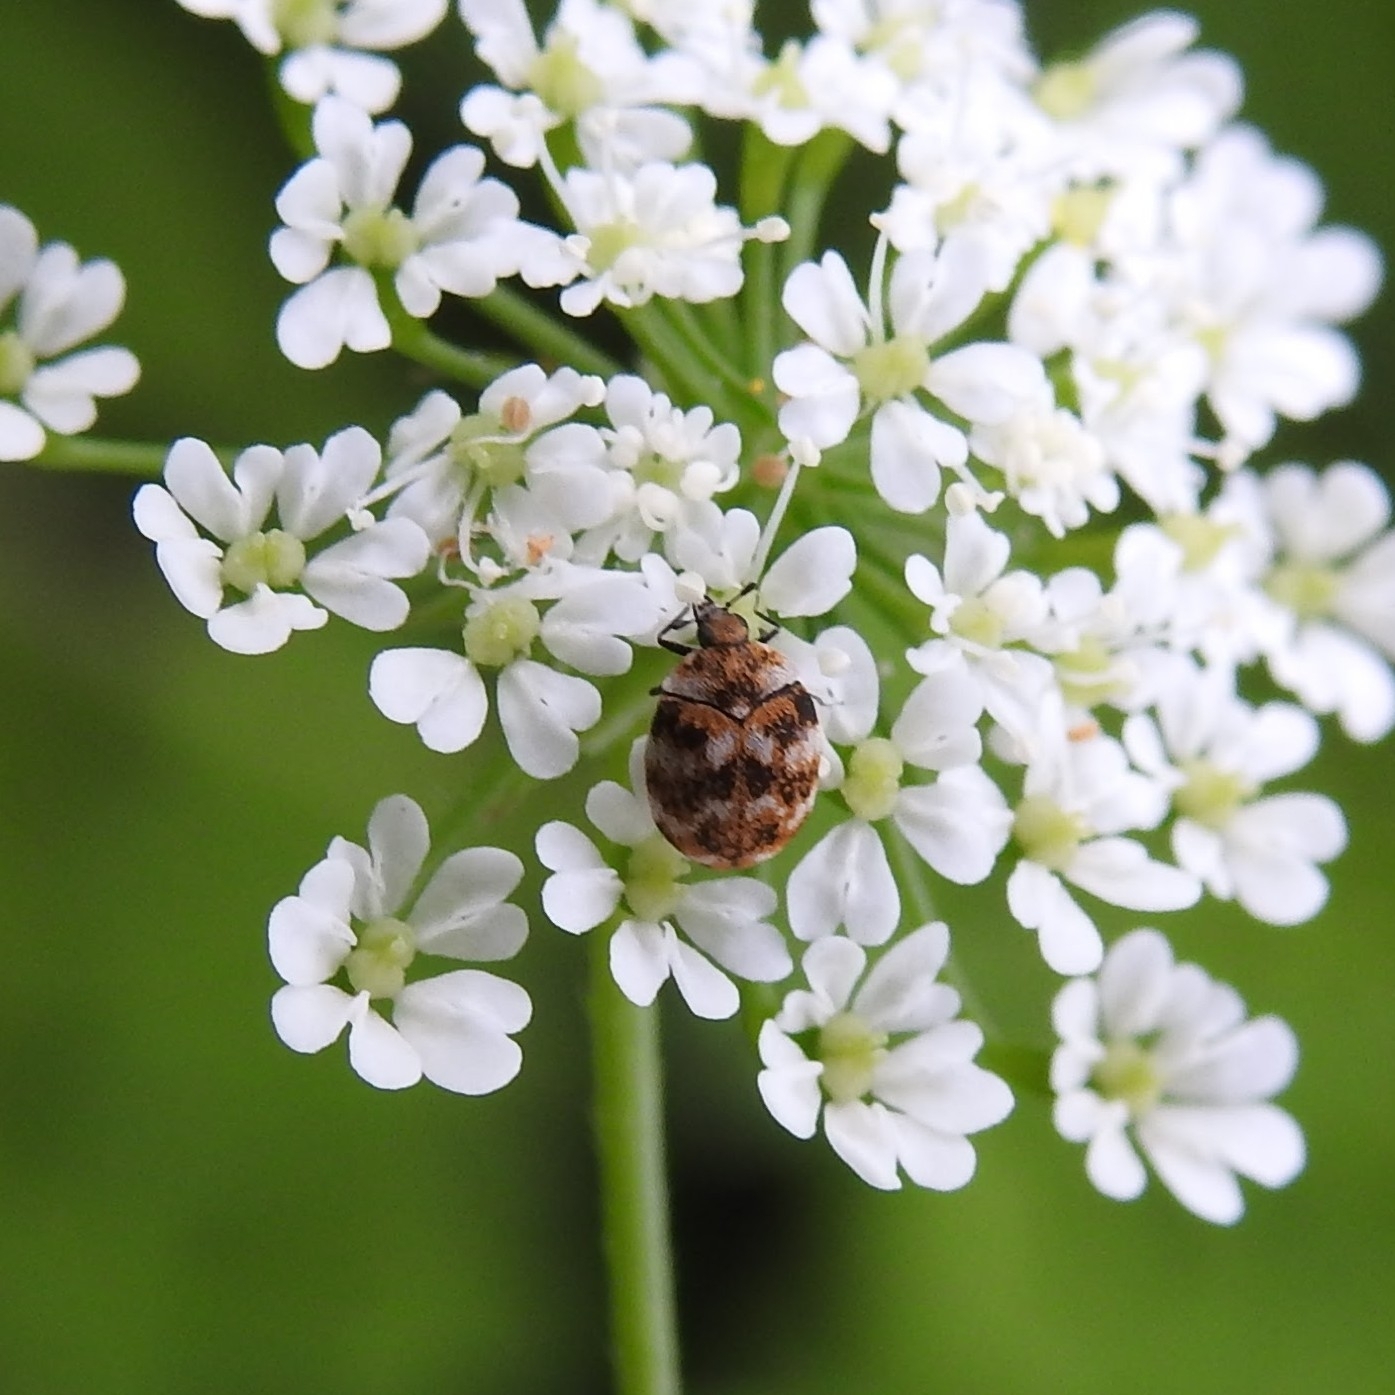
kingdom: Animalia
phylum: Arthropoda
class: Insecta
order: Coleoptera
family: Dermestidae
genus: Anthrenus
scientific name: Anthrenus verbasci
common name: Varied carpet beetle
